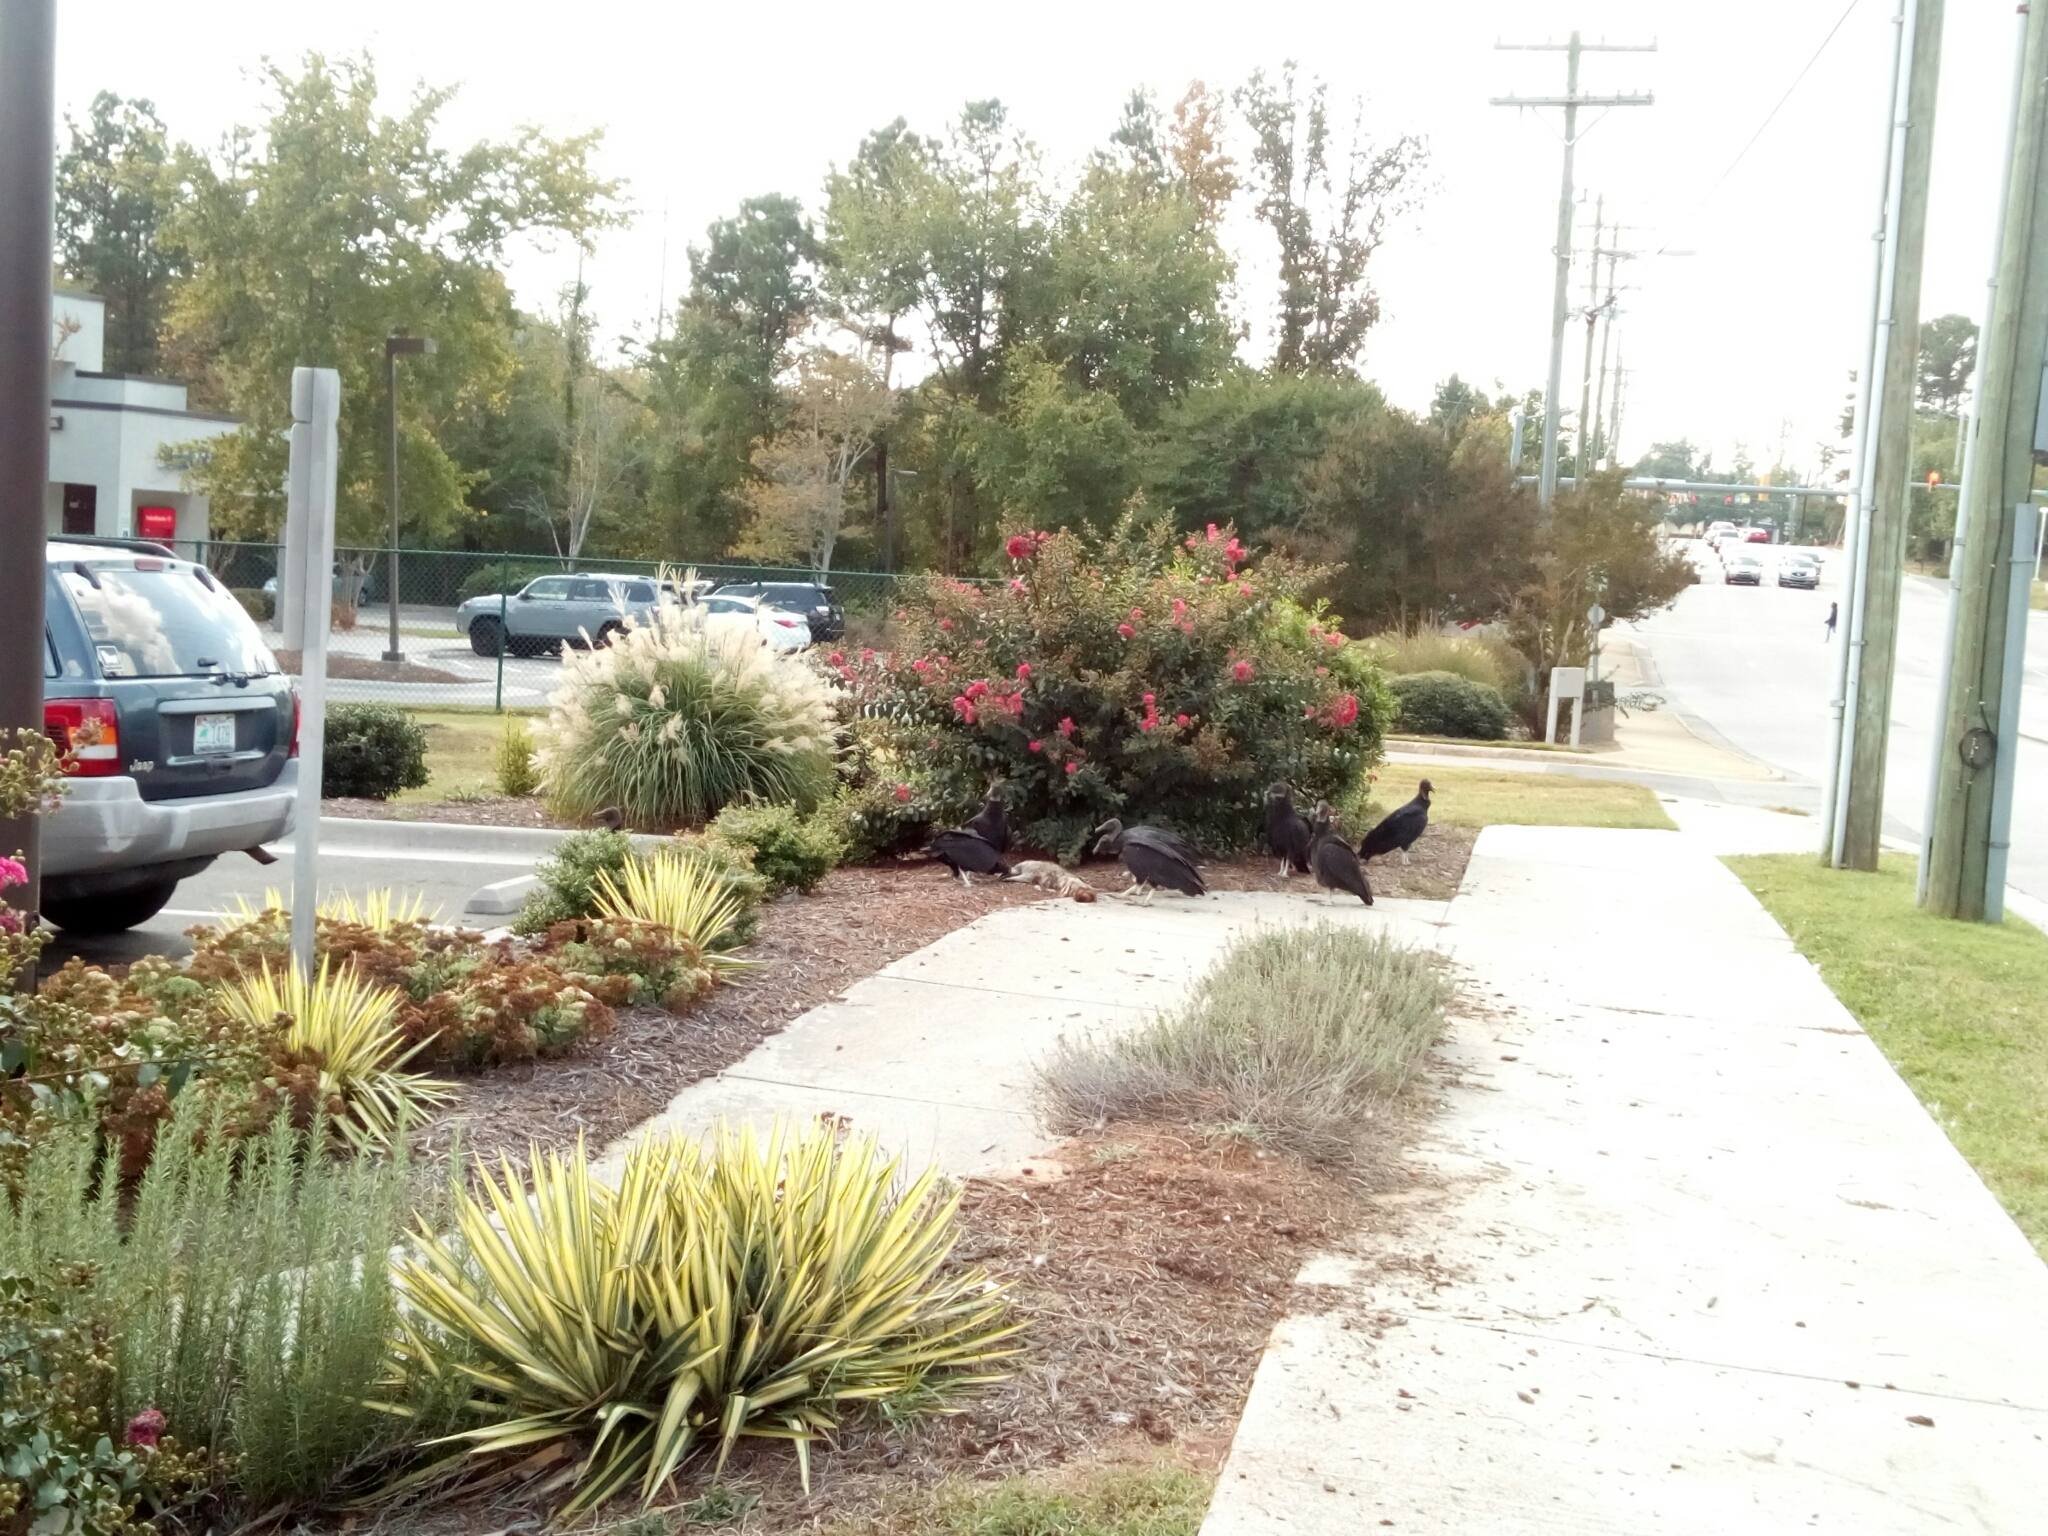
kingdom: Animalia
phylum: Chordata
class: Aves
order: Accipitriformes
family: Cathartidae
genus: Coragyps
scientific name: Coragyps atratus
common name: Black vulture
